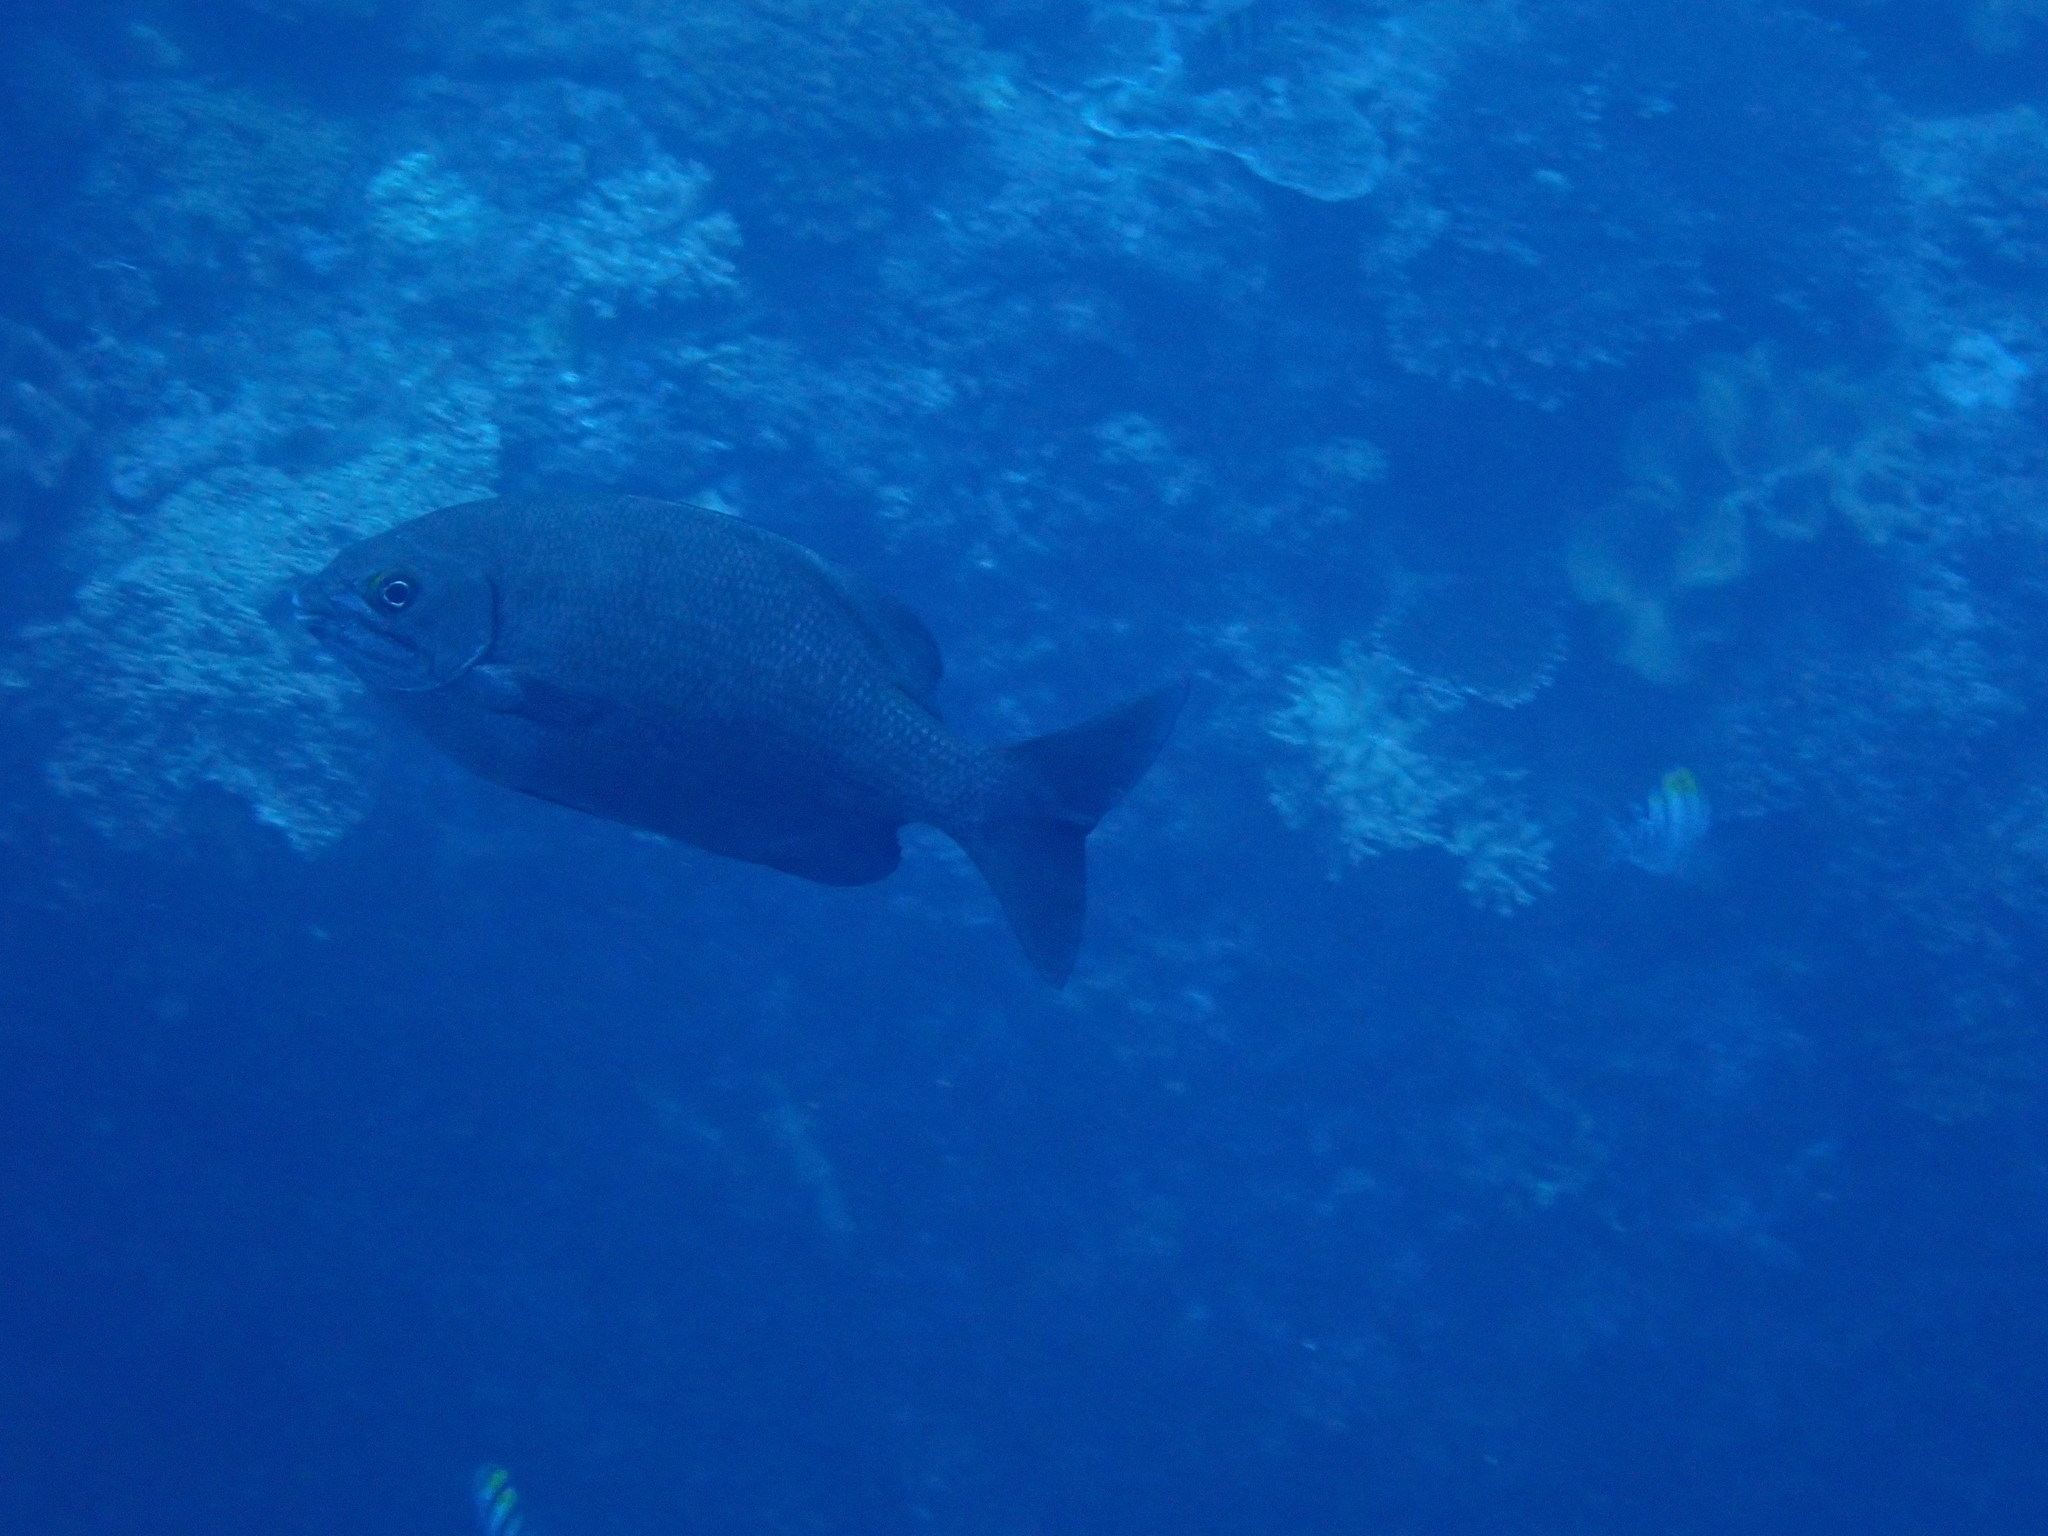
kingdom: Animalia
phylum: Chordata
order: Perciformes
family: Kyphosidae
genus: Kyphosus
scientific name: Kyphosus cinerascens
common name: Topsail drummer
